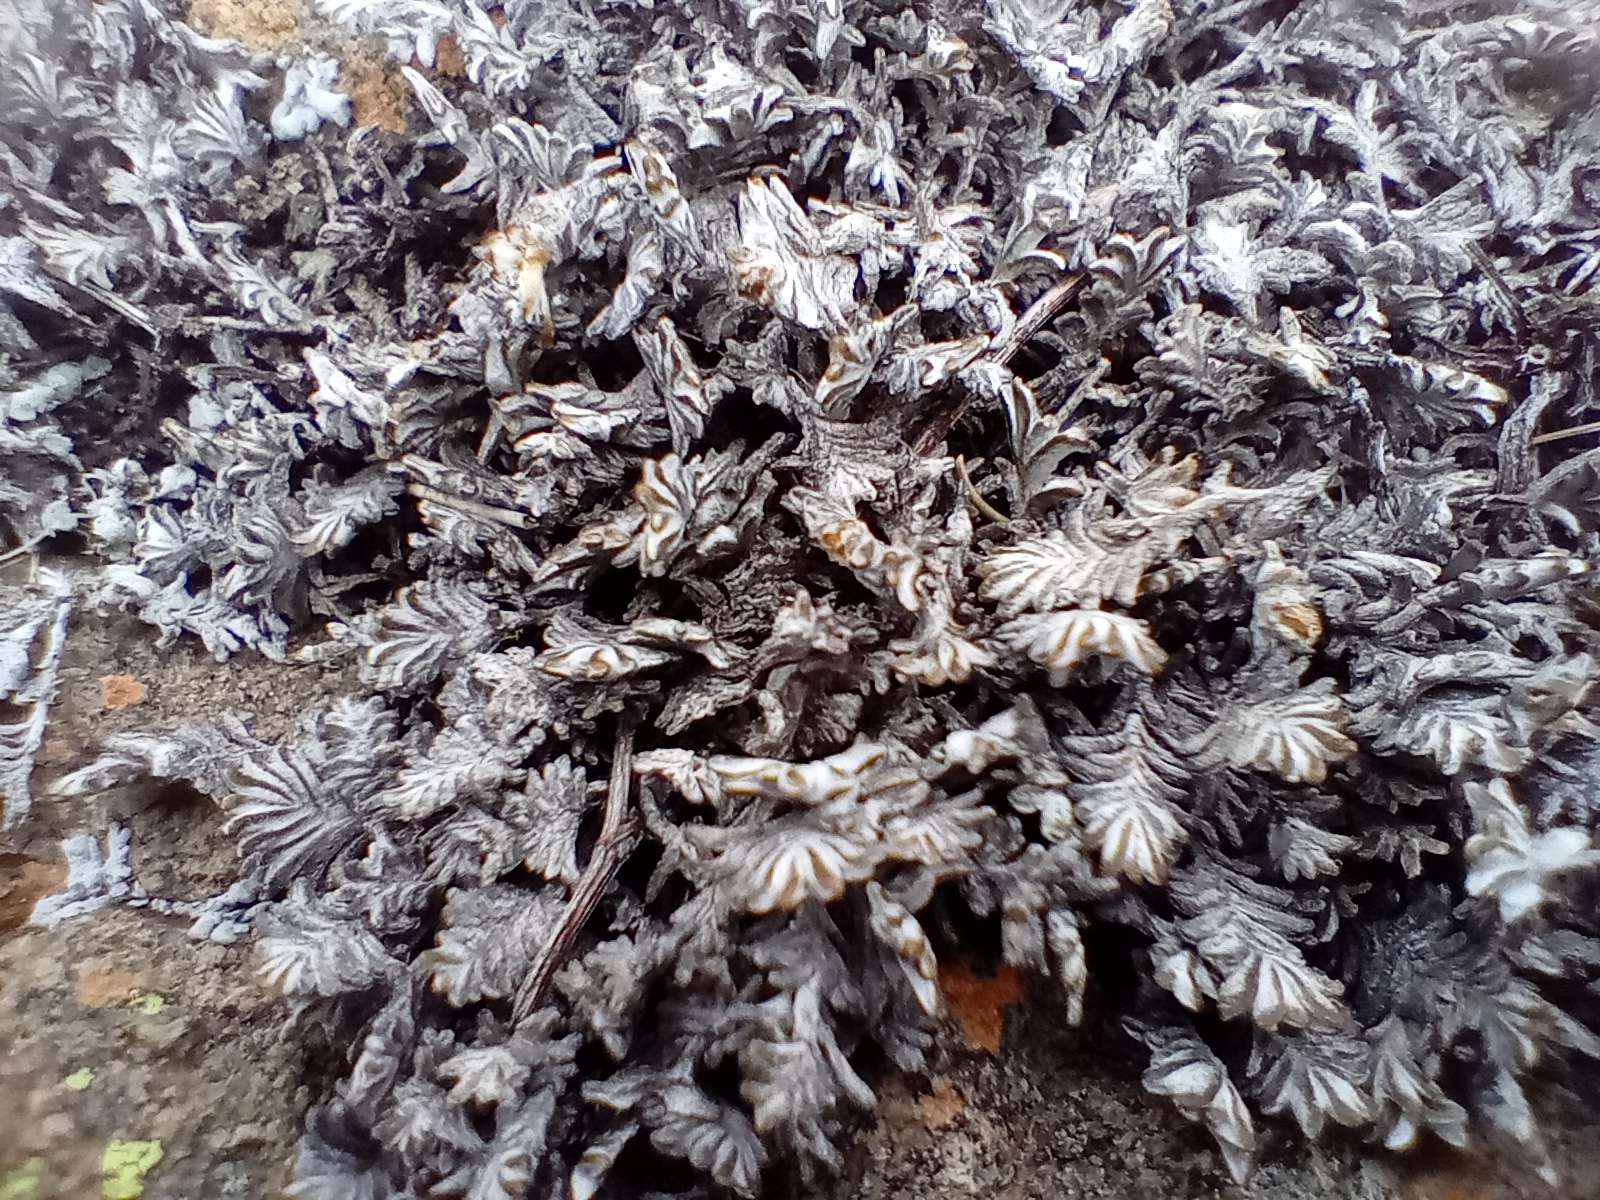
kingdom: Plantae
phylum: Tracheophyta
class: Magnoliopsida
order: Asterales
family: Asteraceae
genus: Raoulia
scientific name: Raoulia monroi
